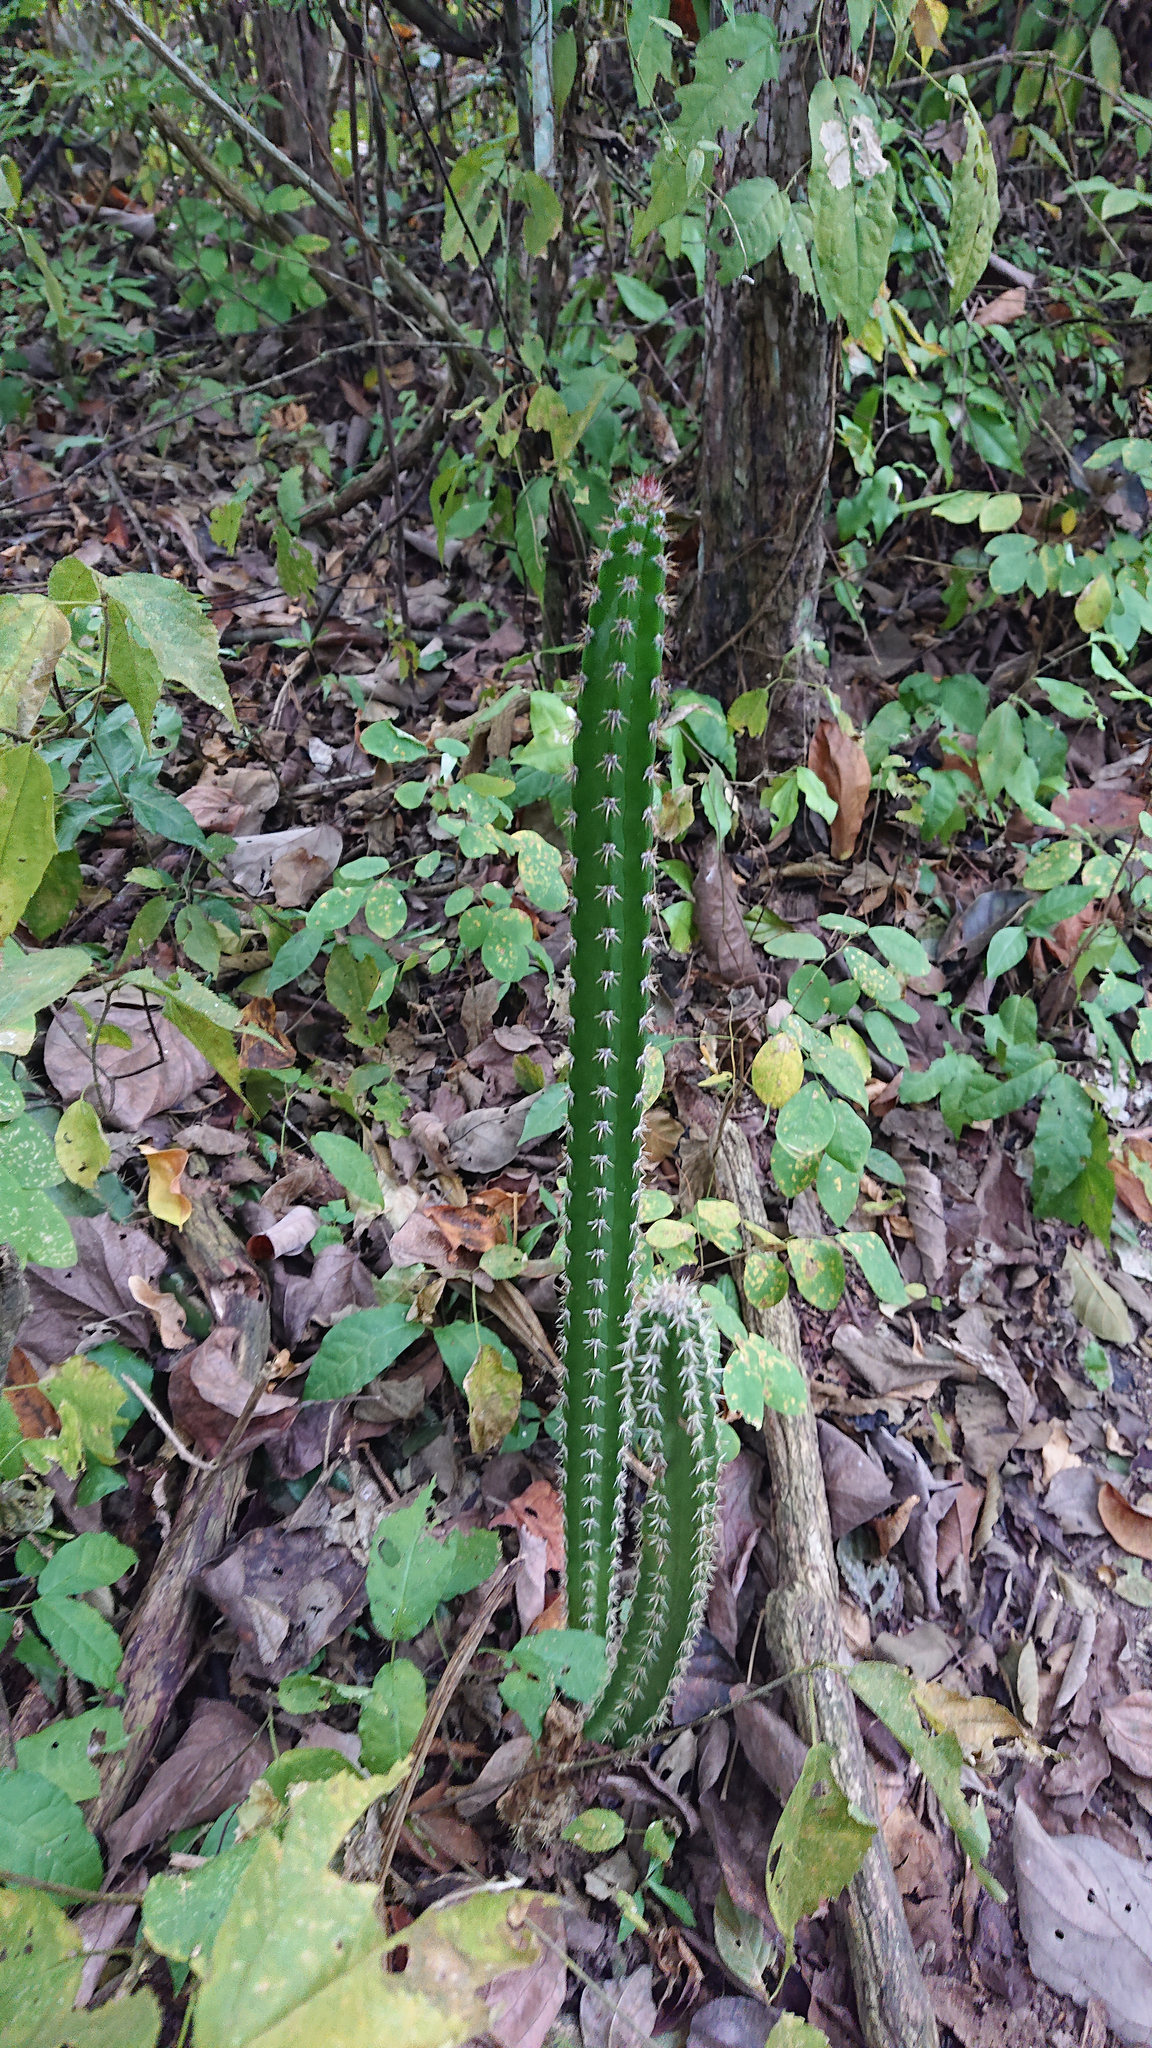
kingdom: Plantae
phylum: Tracheophyta
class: Magnoliopsida
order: Caryophyllales
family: Cactaceae
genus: Praecereus
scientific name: Praecereus euchlorus
